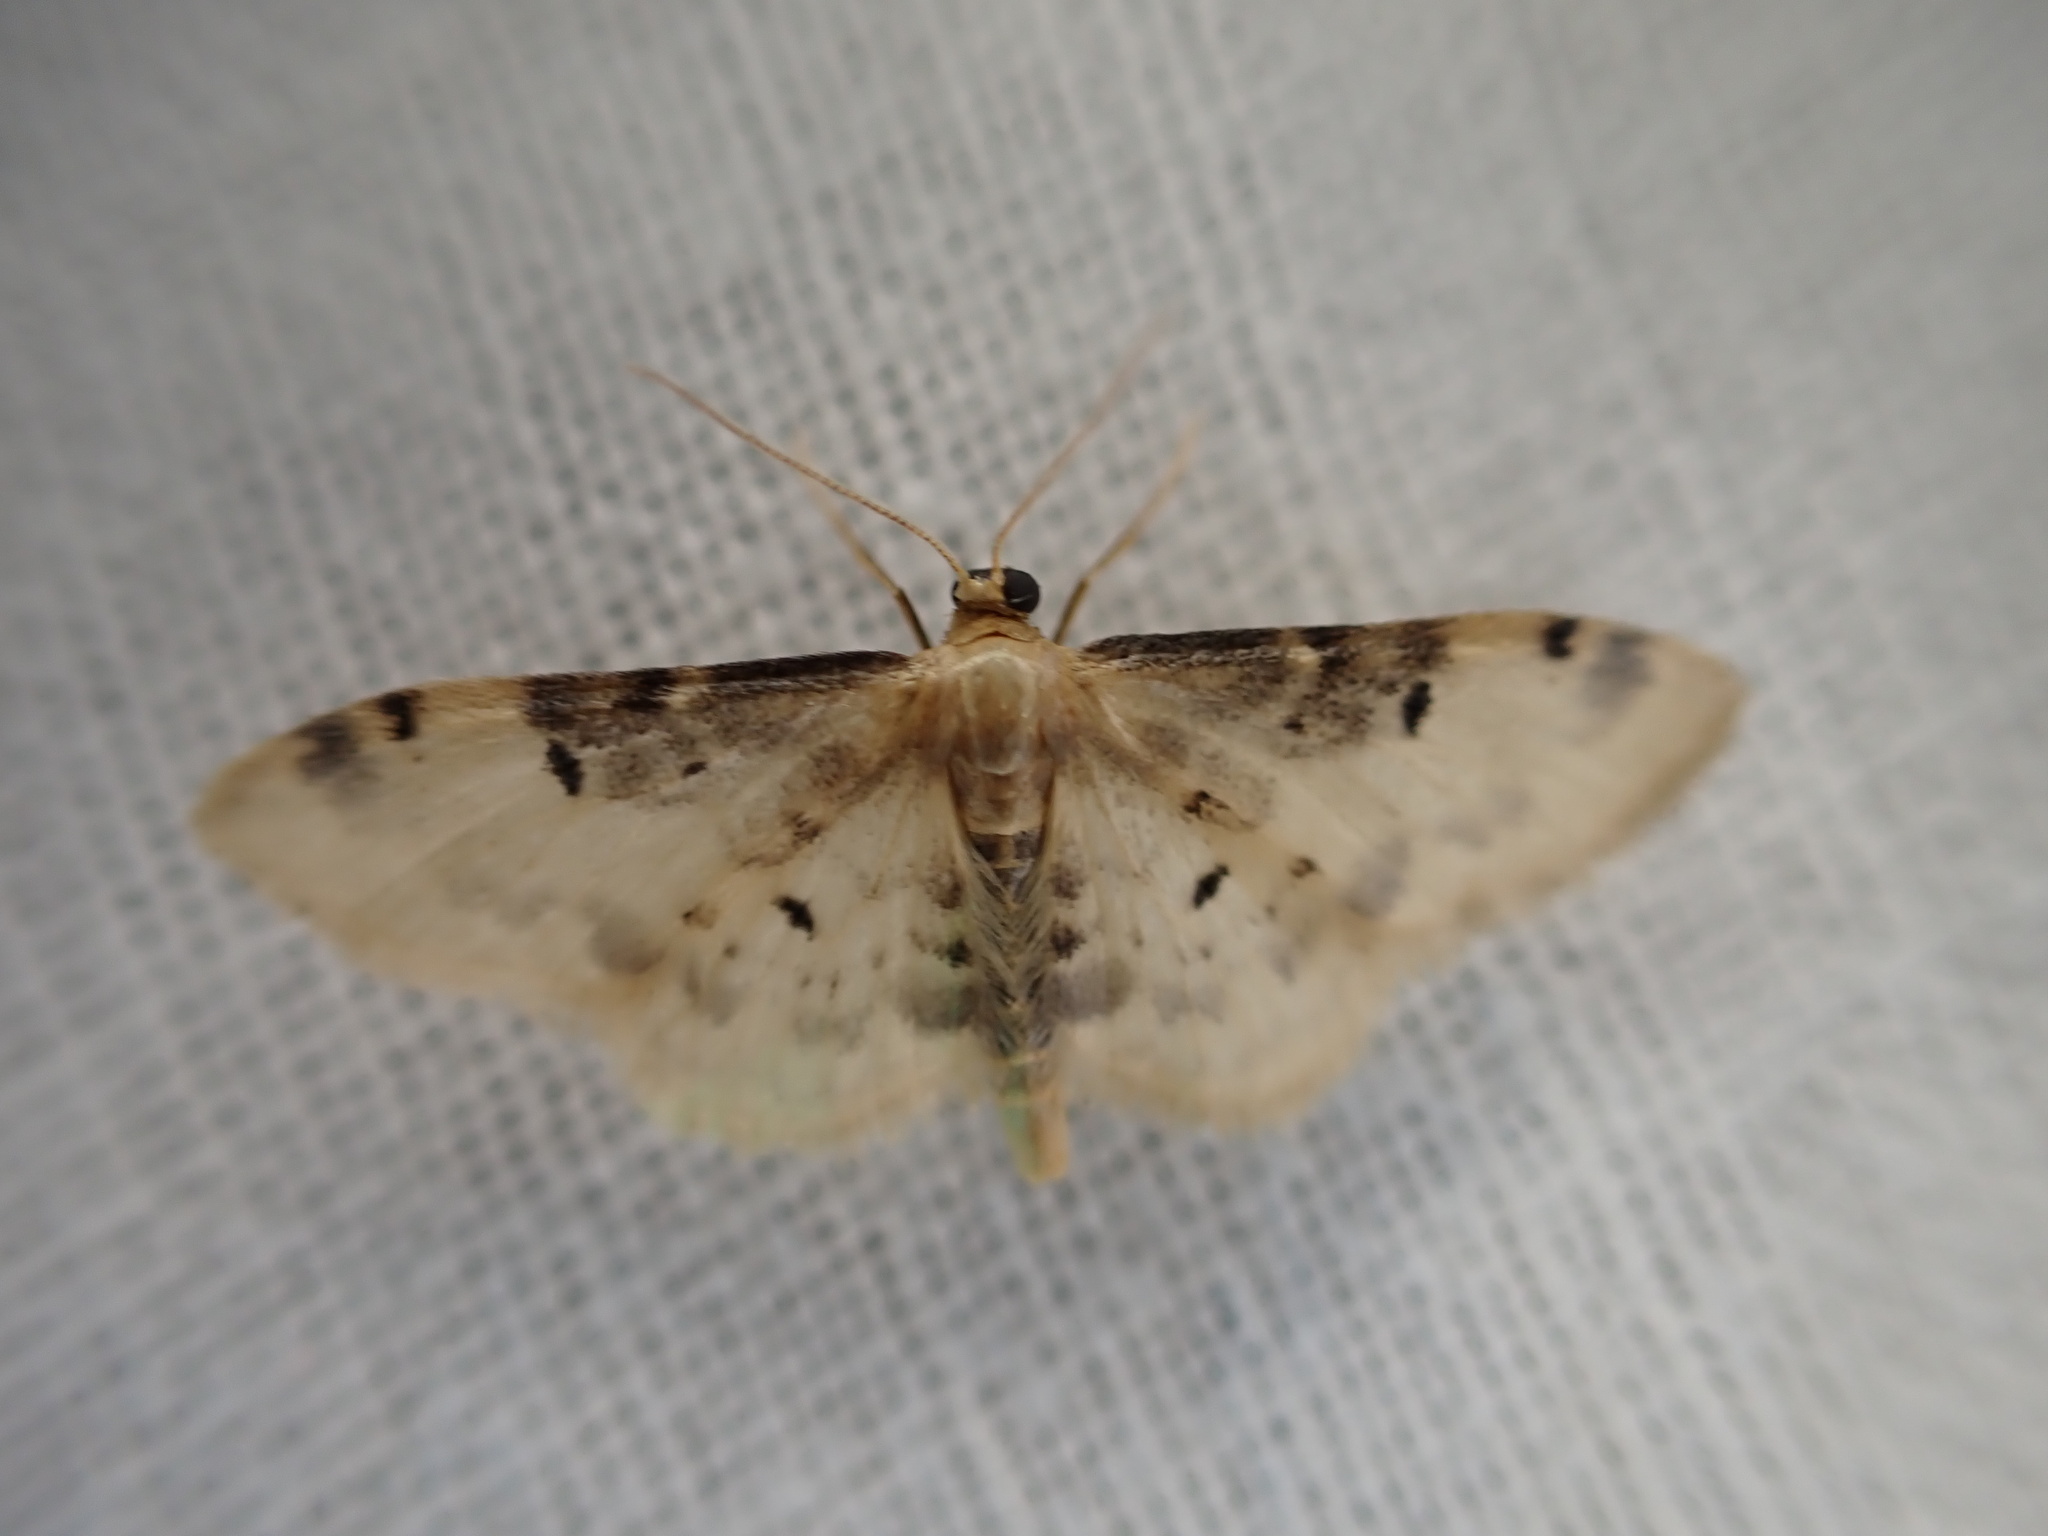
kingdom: Animalia
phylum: Arthropoda
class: Insecta
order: Lepidoptera
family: Geometridae
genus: Idaea
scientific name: Idaea filicata
